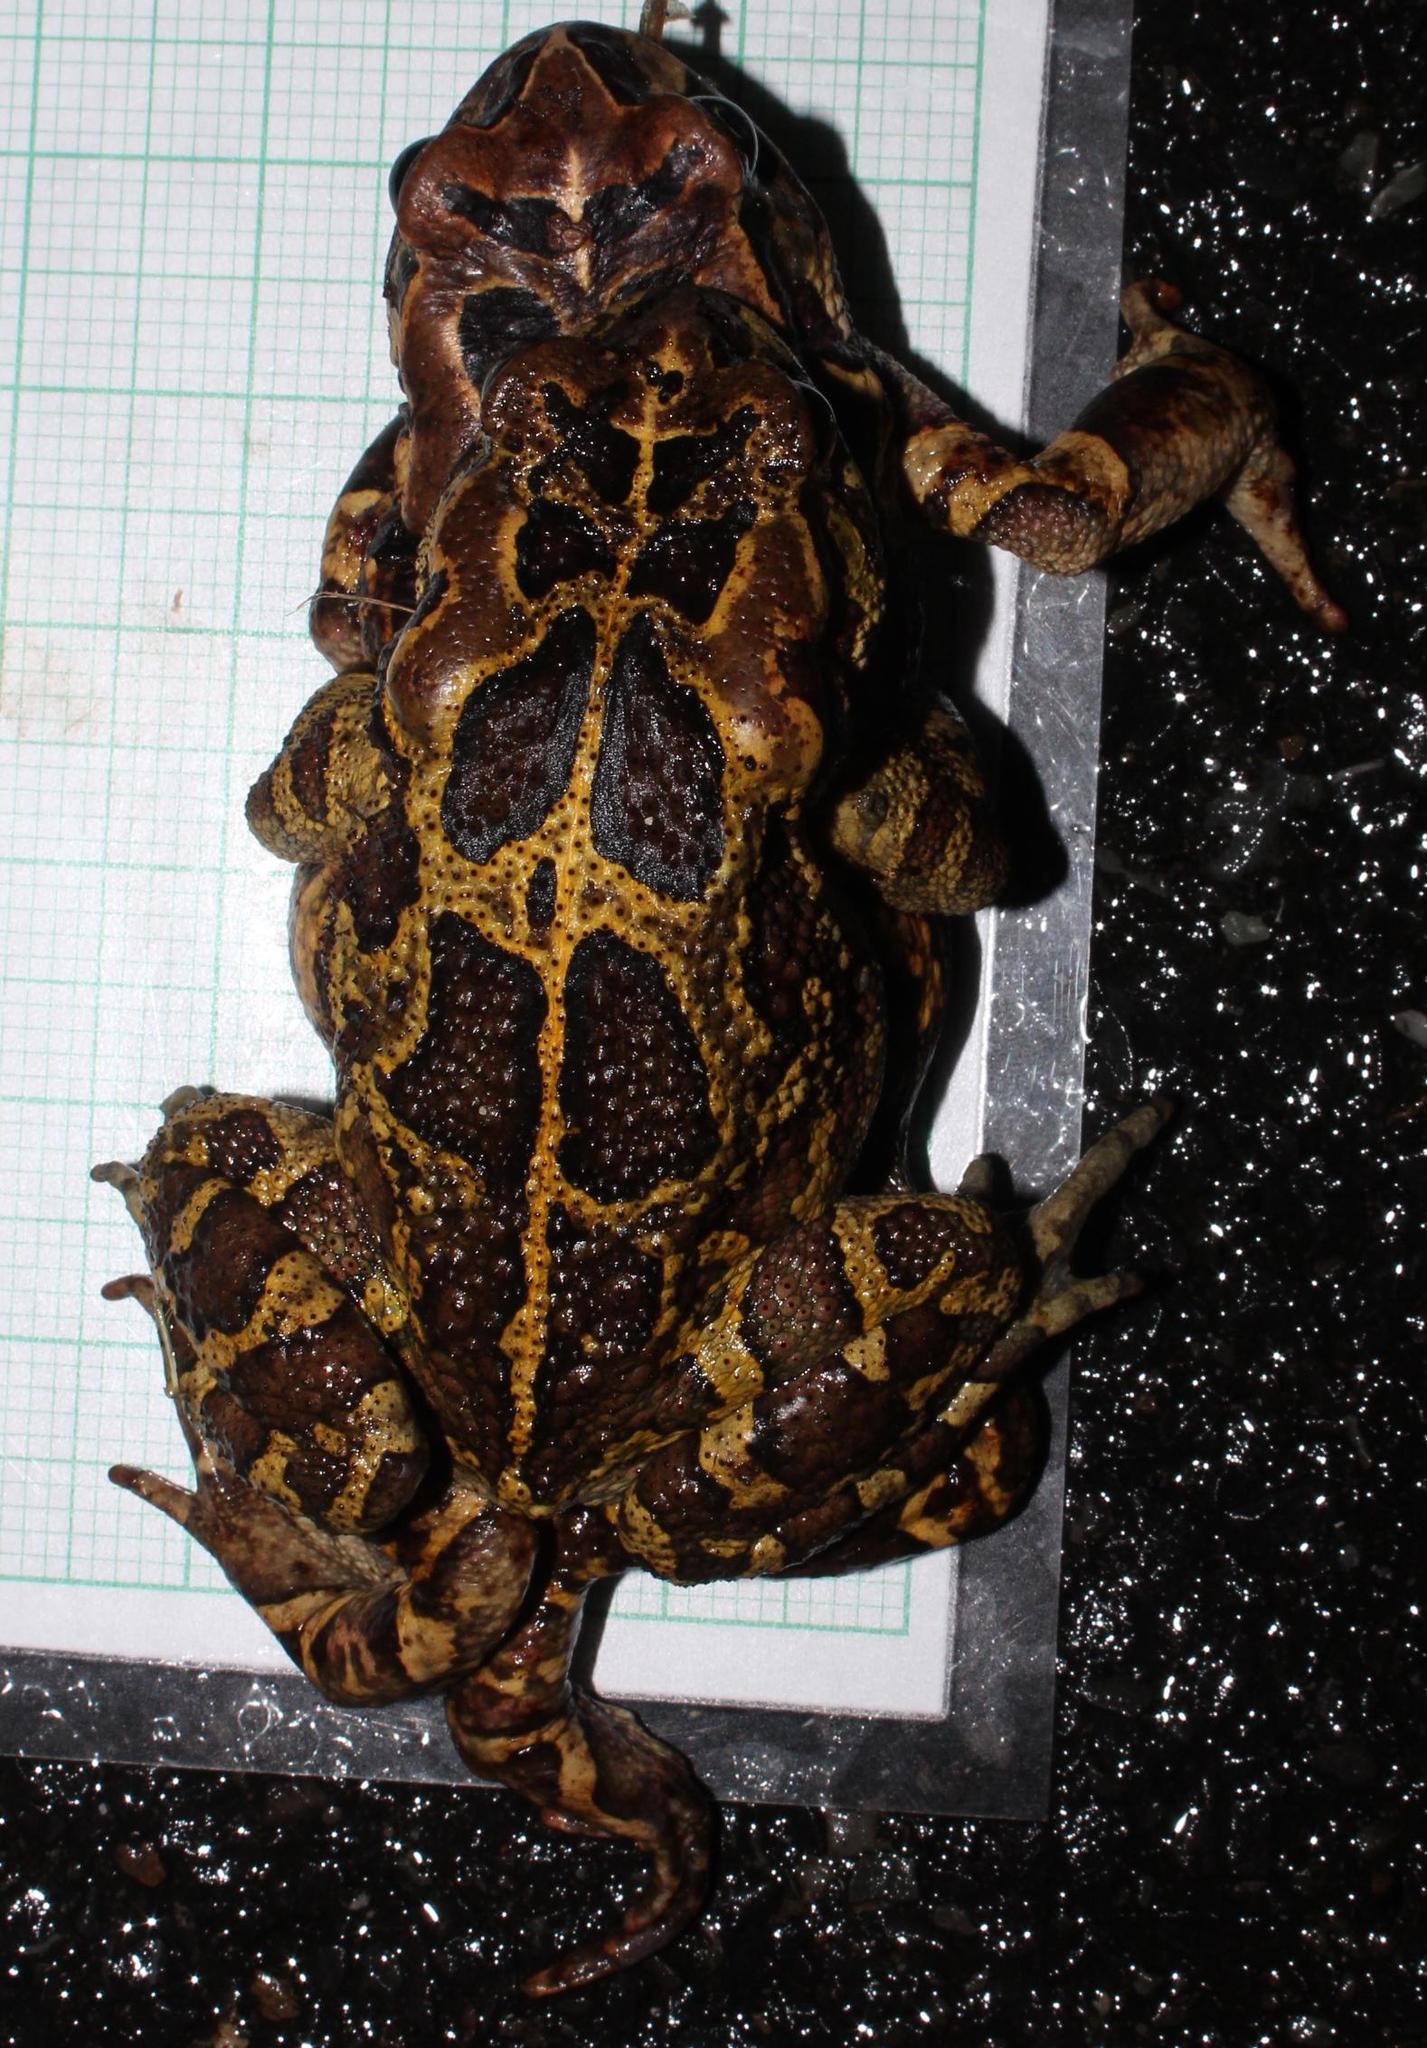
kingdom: Animalia
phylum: Chordata
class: Amphibia
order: Anura
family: Bufonidae
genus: Sclerophrys
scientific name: Sclerophrys pantherina
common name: Panther toad
